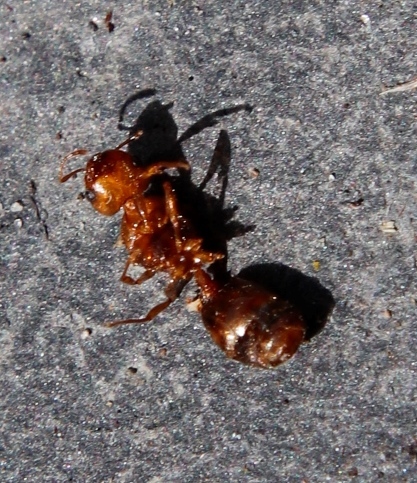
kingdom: Animalia
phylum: Arthropoda
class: Insecta
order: Hymenoptera
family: Formicidae
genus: Tetramorium
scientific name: Tetramorium capense
